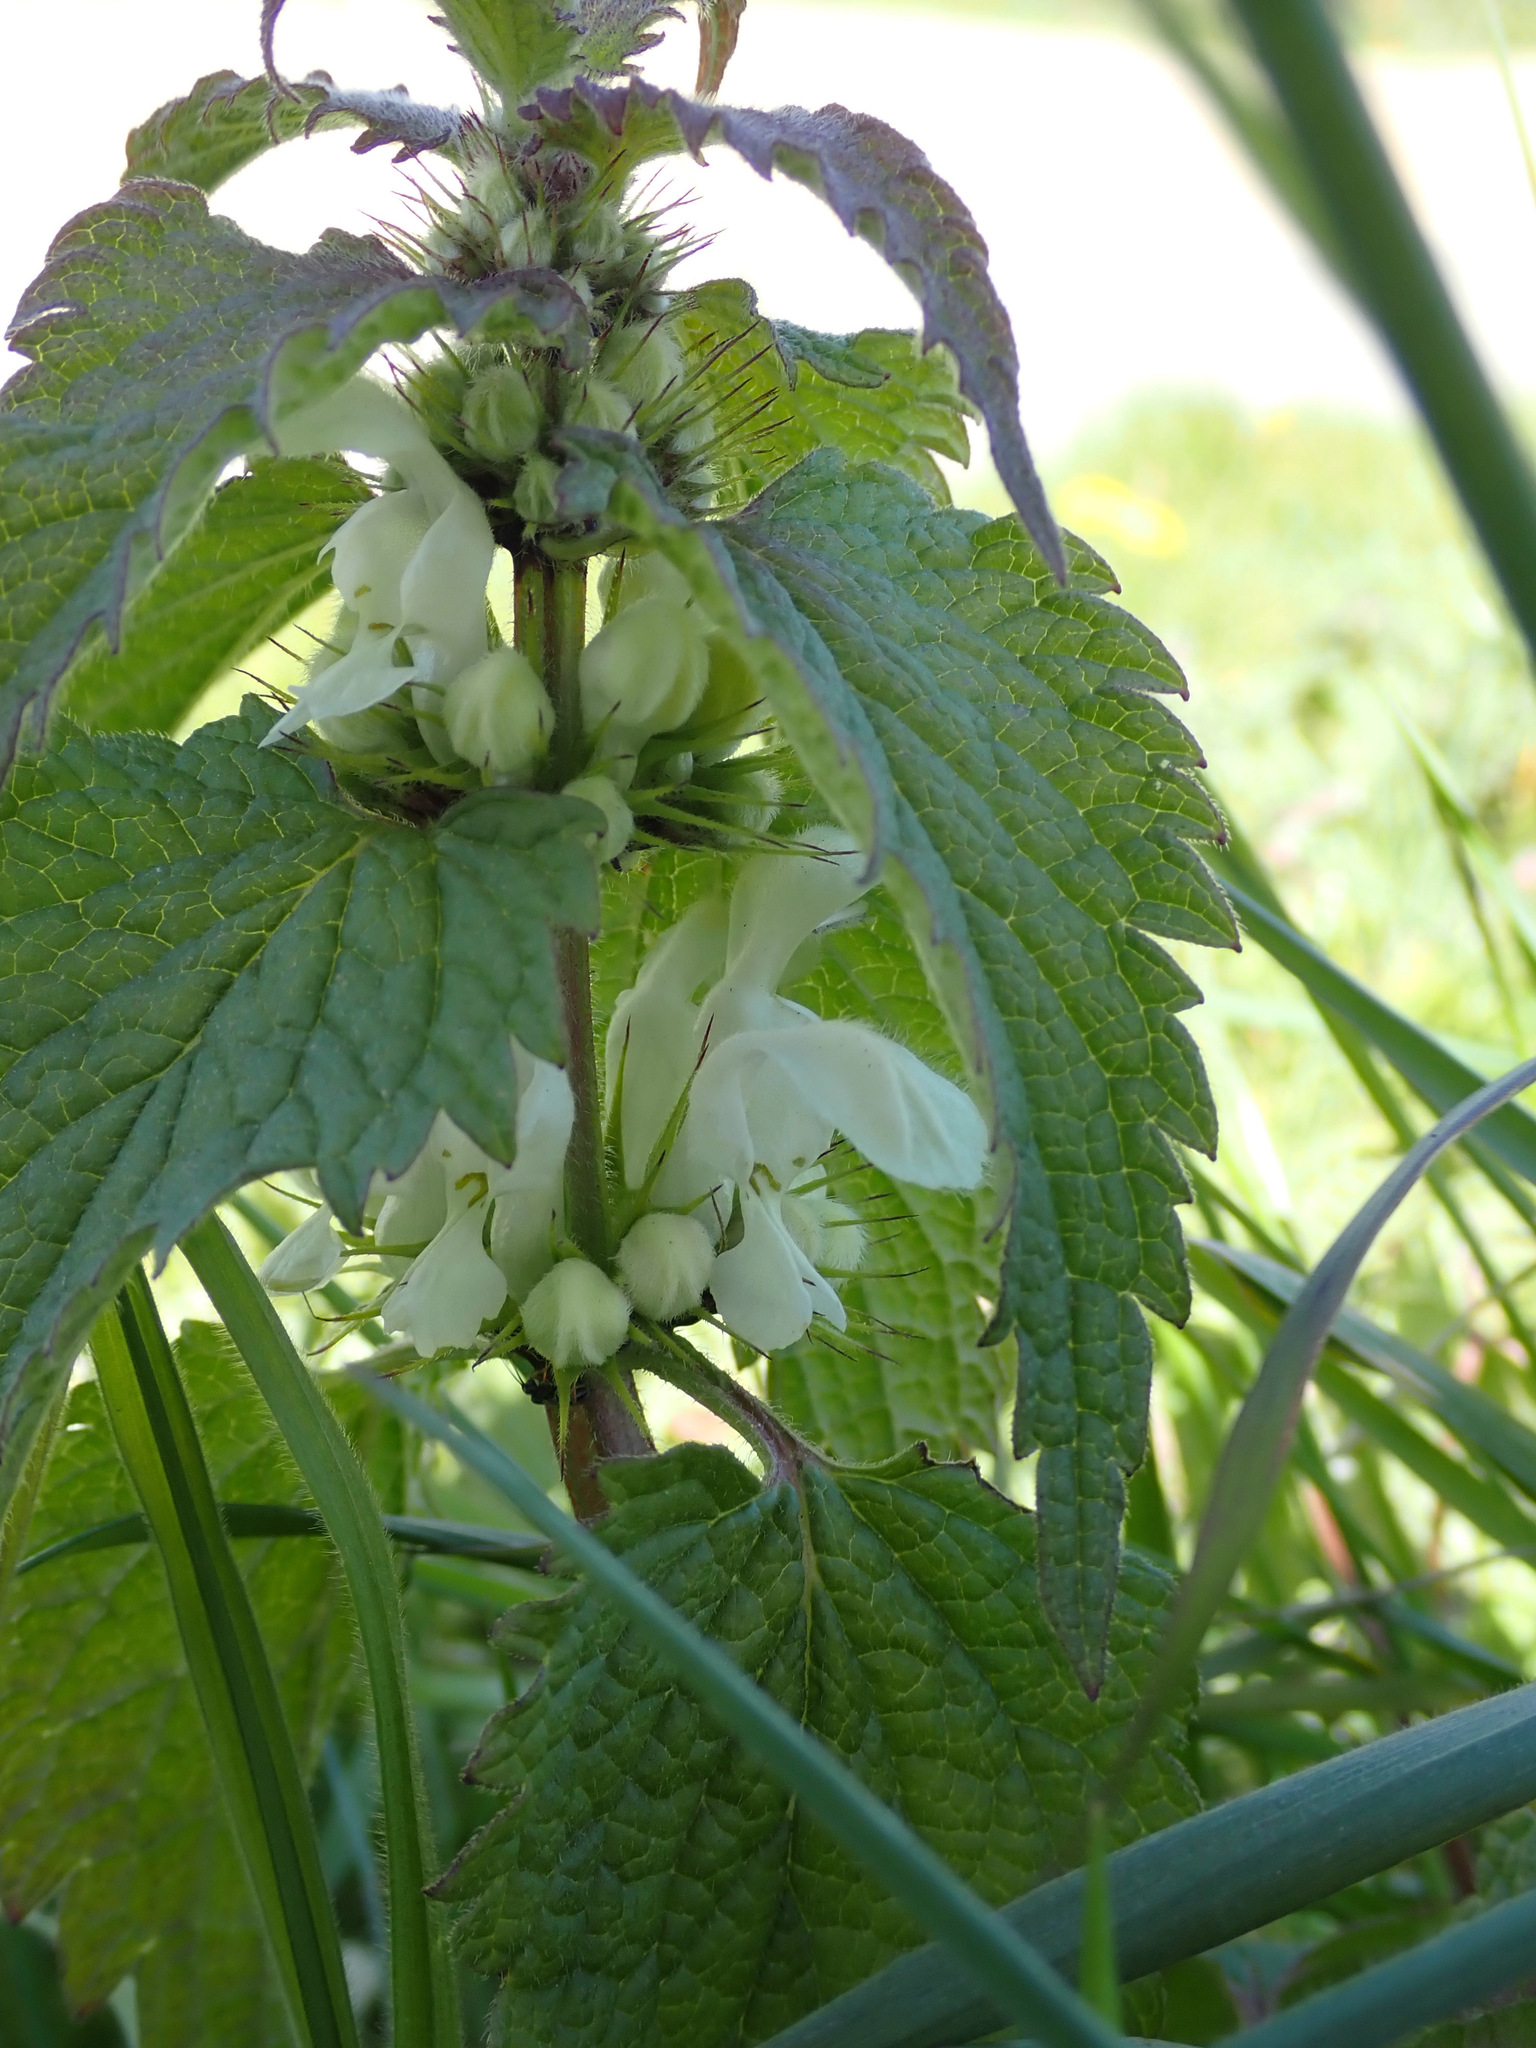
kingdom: Plantae
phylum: Tracheophyta
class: Magnoliopsida
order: Lamiales
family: Lamiaceae
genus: Lamium
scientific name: Lamium album
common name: White dead-nettle
